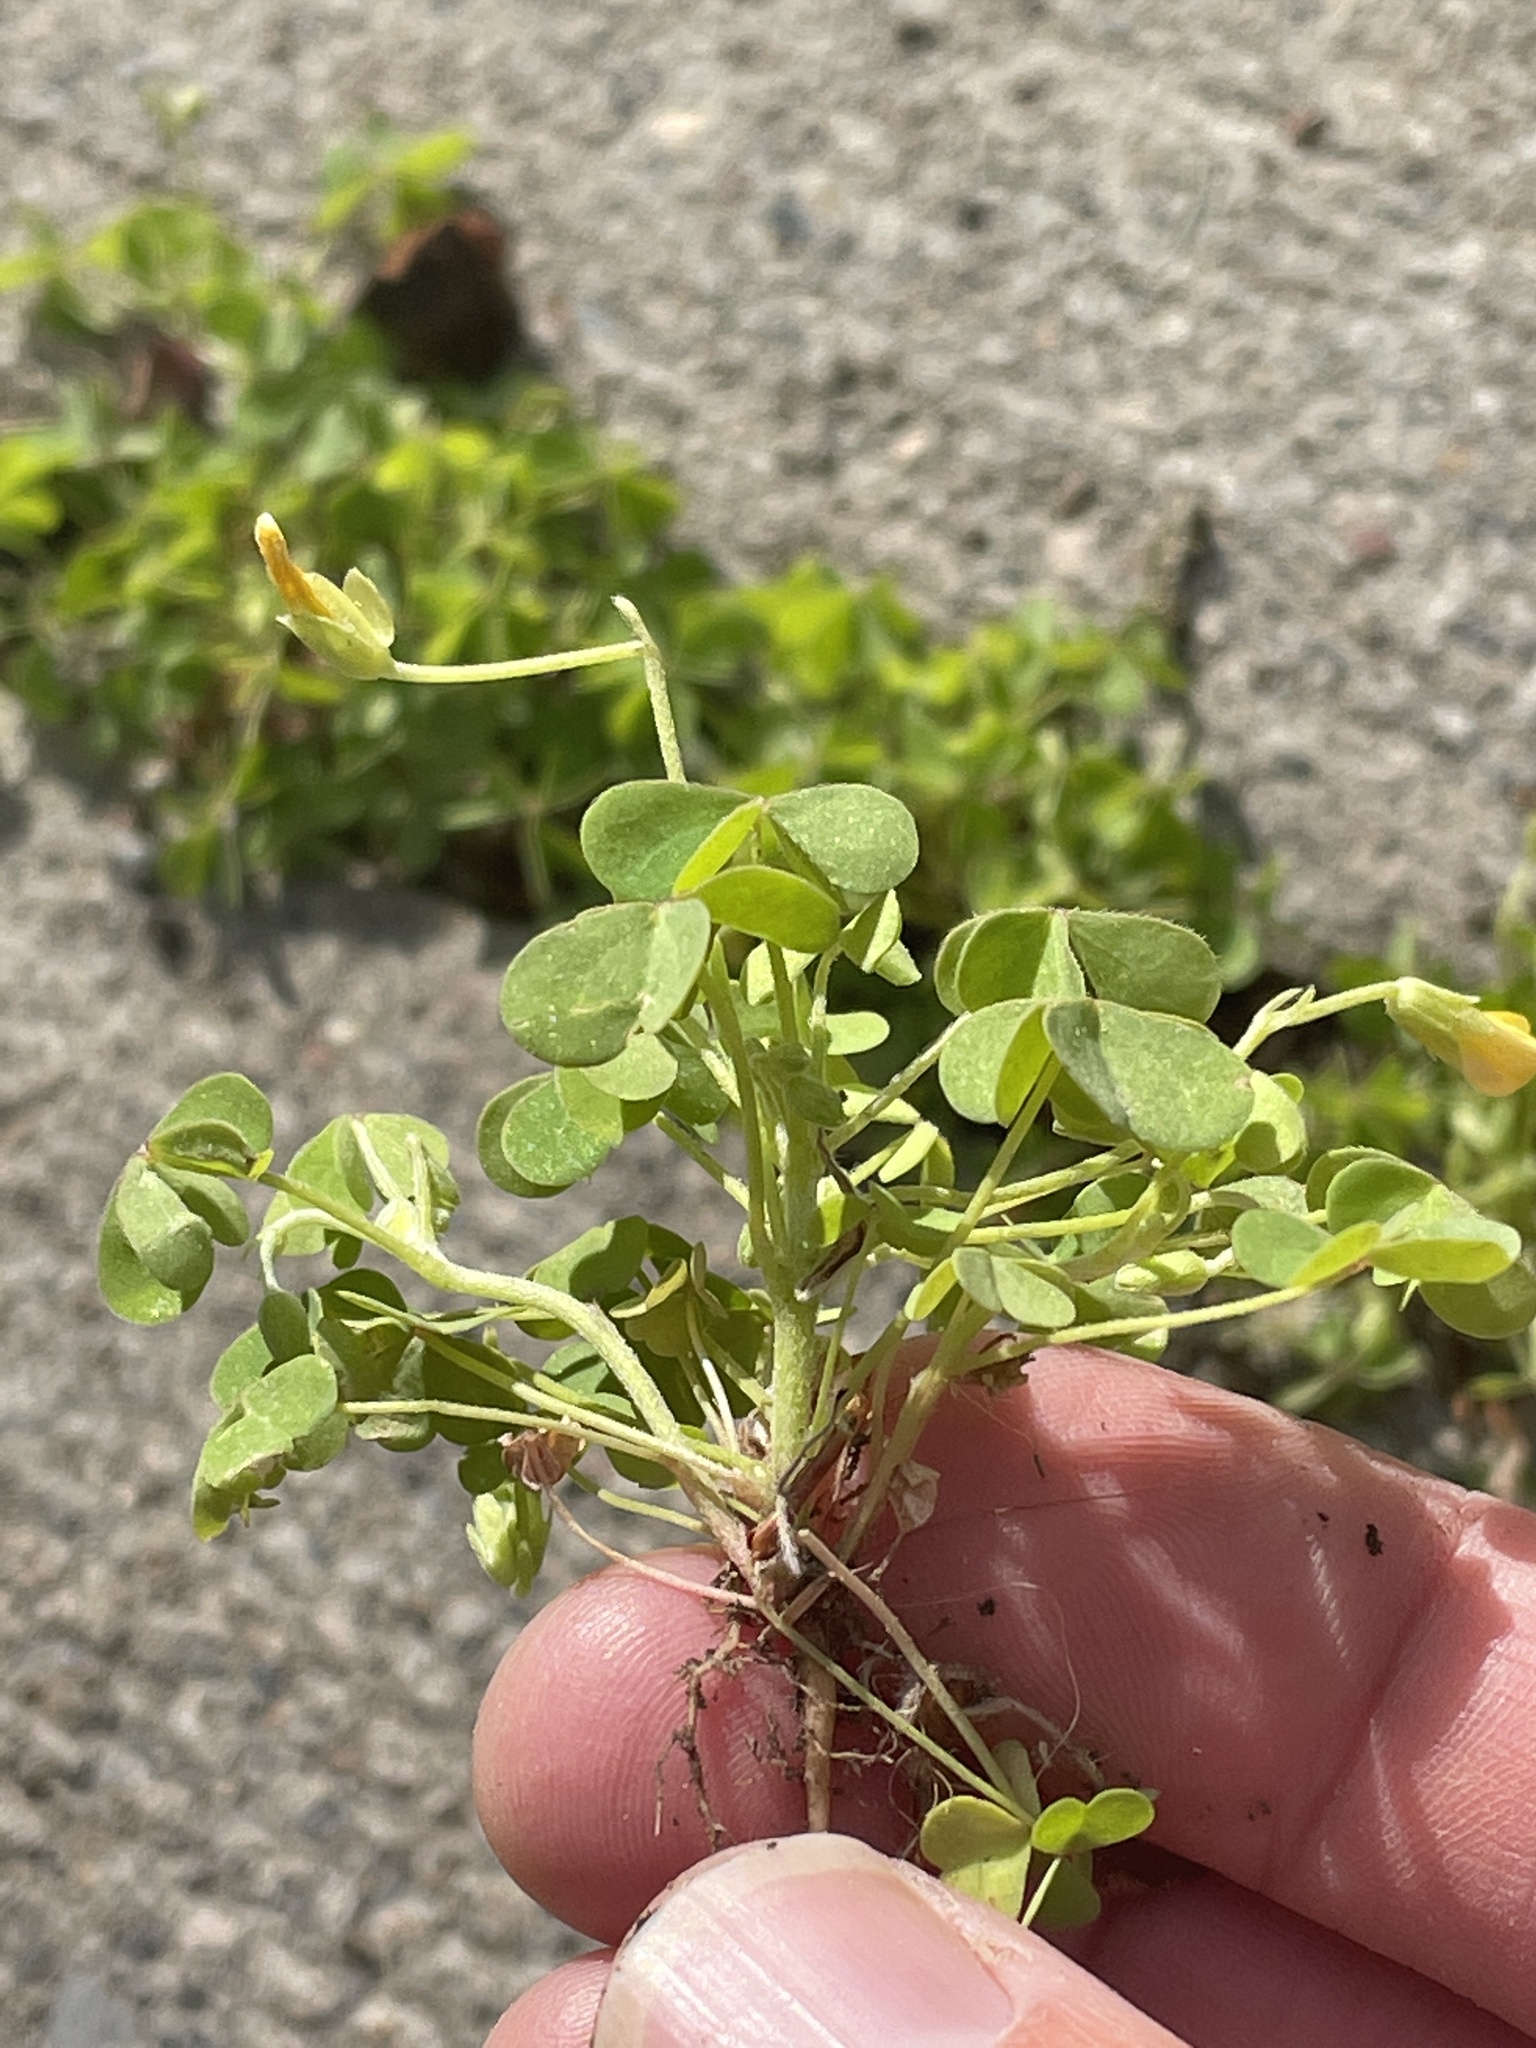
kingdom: Plantae
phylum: Tracheophyta
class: Magnoliopsida
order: Oxalidales
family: Oxalidaceae
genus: Oxalis
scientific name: Oxalis dillenii
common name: Sussex yellow-sorrel
